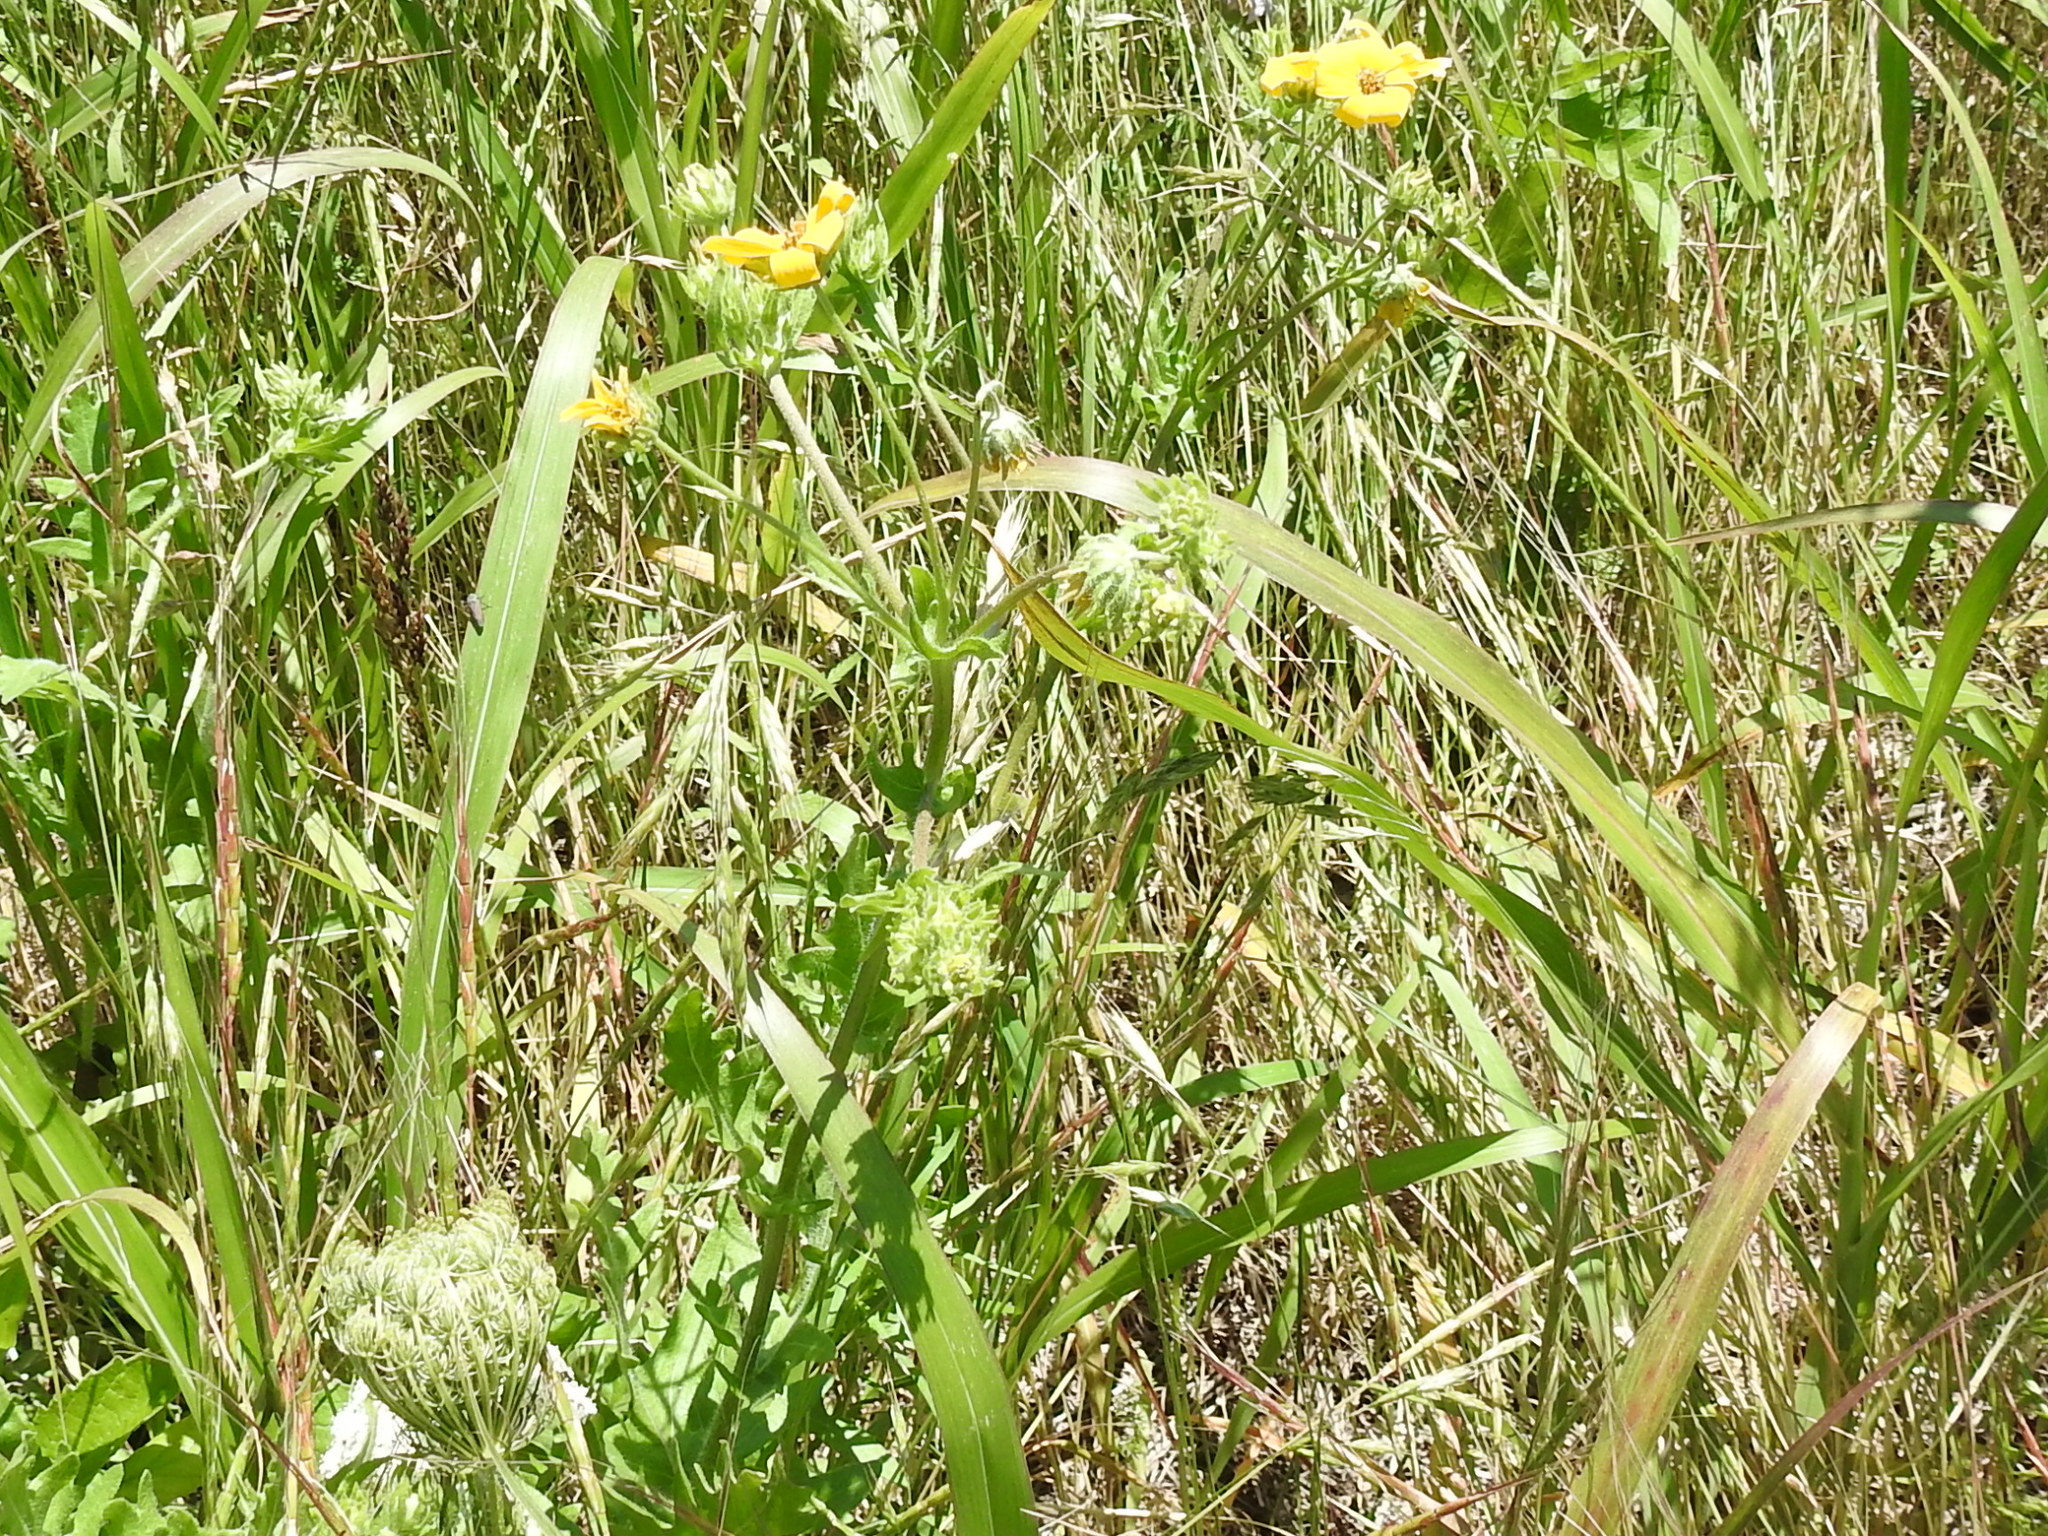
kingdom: Plantae
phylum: Tracheophyta
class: Magnoliopsida
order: Asterales
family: Asteraceae
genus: Engelmannia
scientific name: Engelmannia peristenia
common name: Engelmann's daisy
